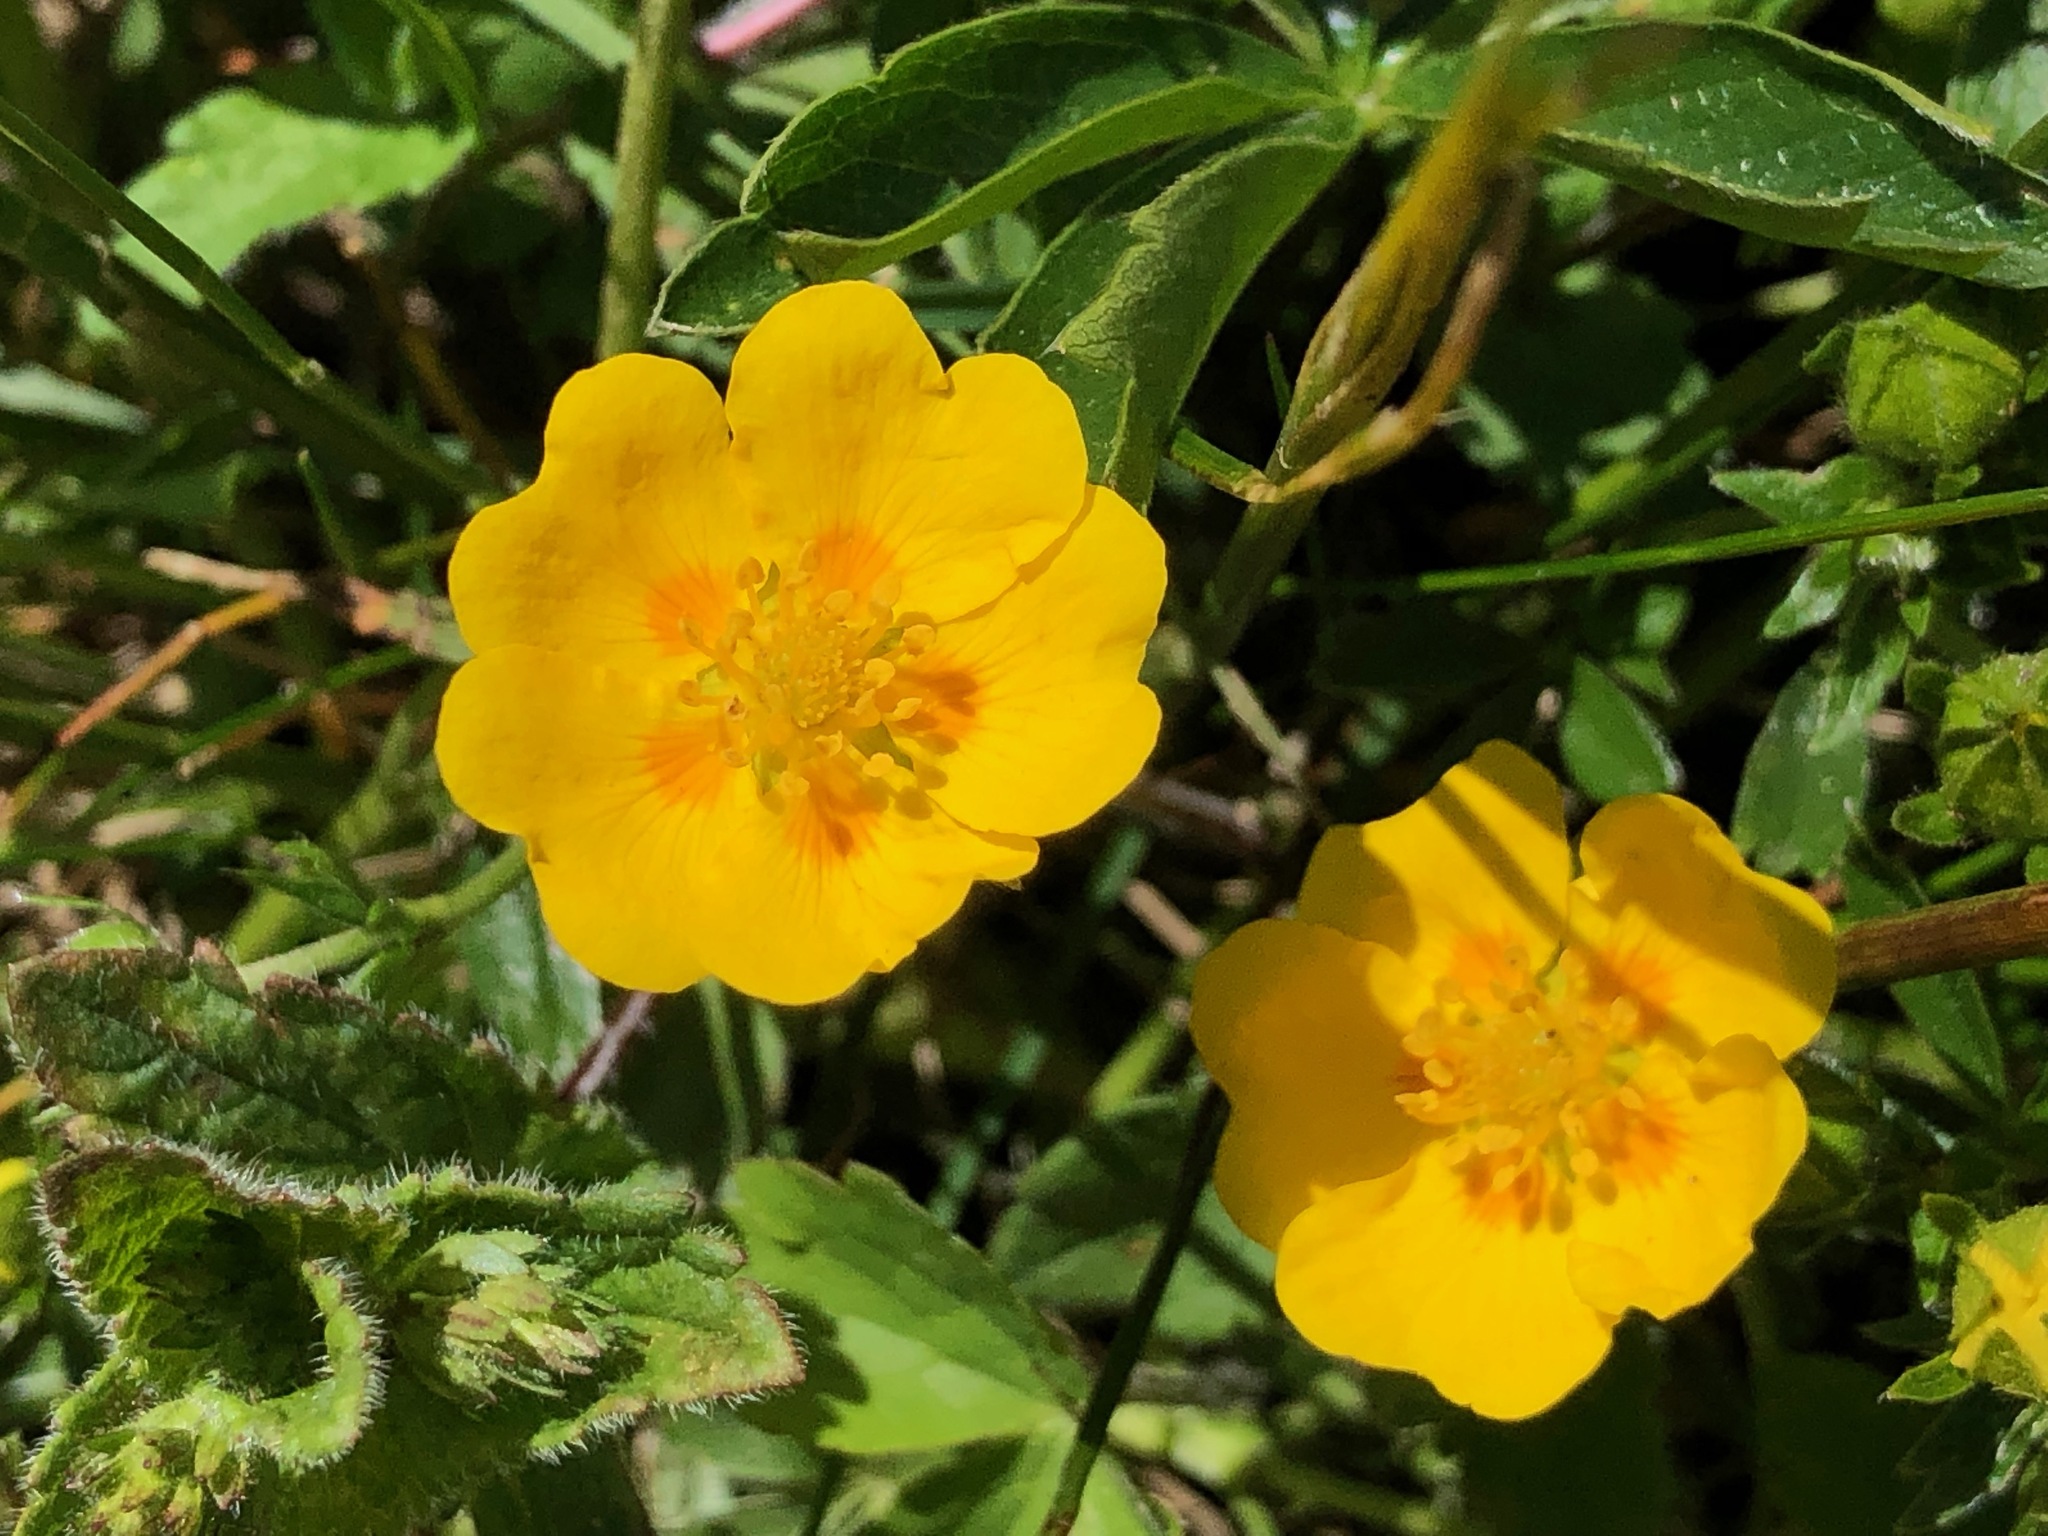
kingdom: Plantae
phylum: Tracheophyta
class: Magnoliopsida
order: Rosales
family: Rosaceae
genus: Potentilla
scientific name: Potentilla aurea
